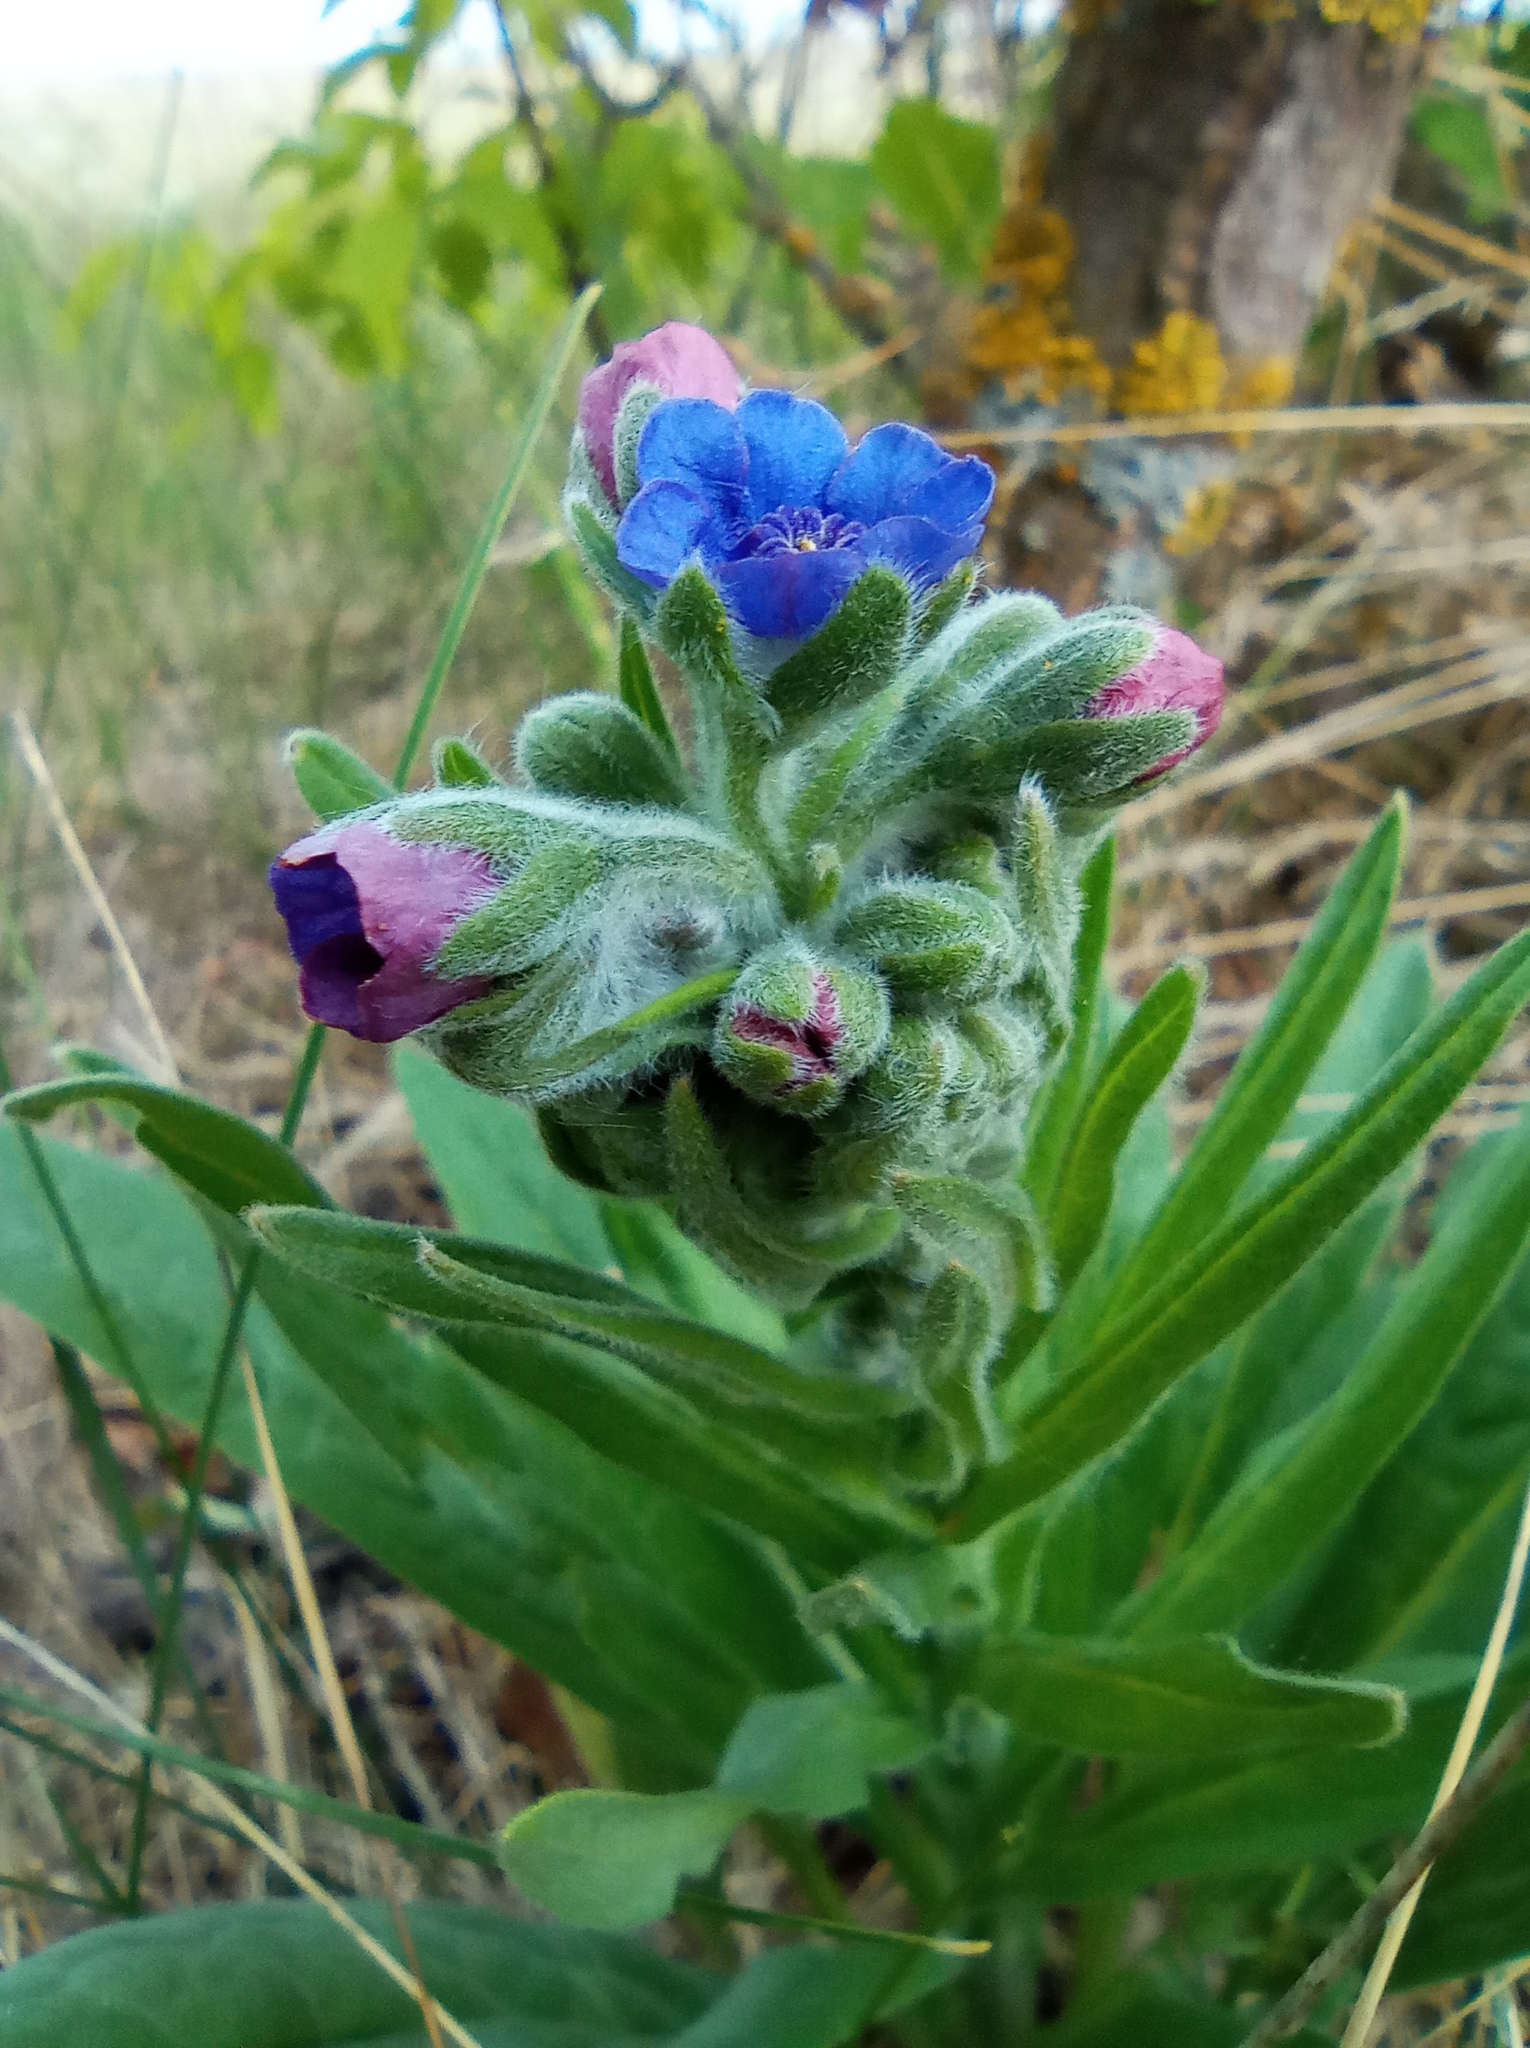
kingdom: Plantae
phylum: Tracheophyta
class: Magnoliopsida
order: Boraginales
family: Boraginaceae
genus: Pulmonaria
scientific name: Pulmonaria mollis
